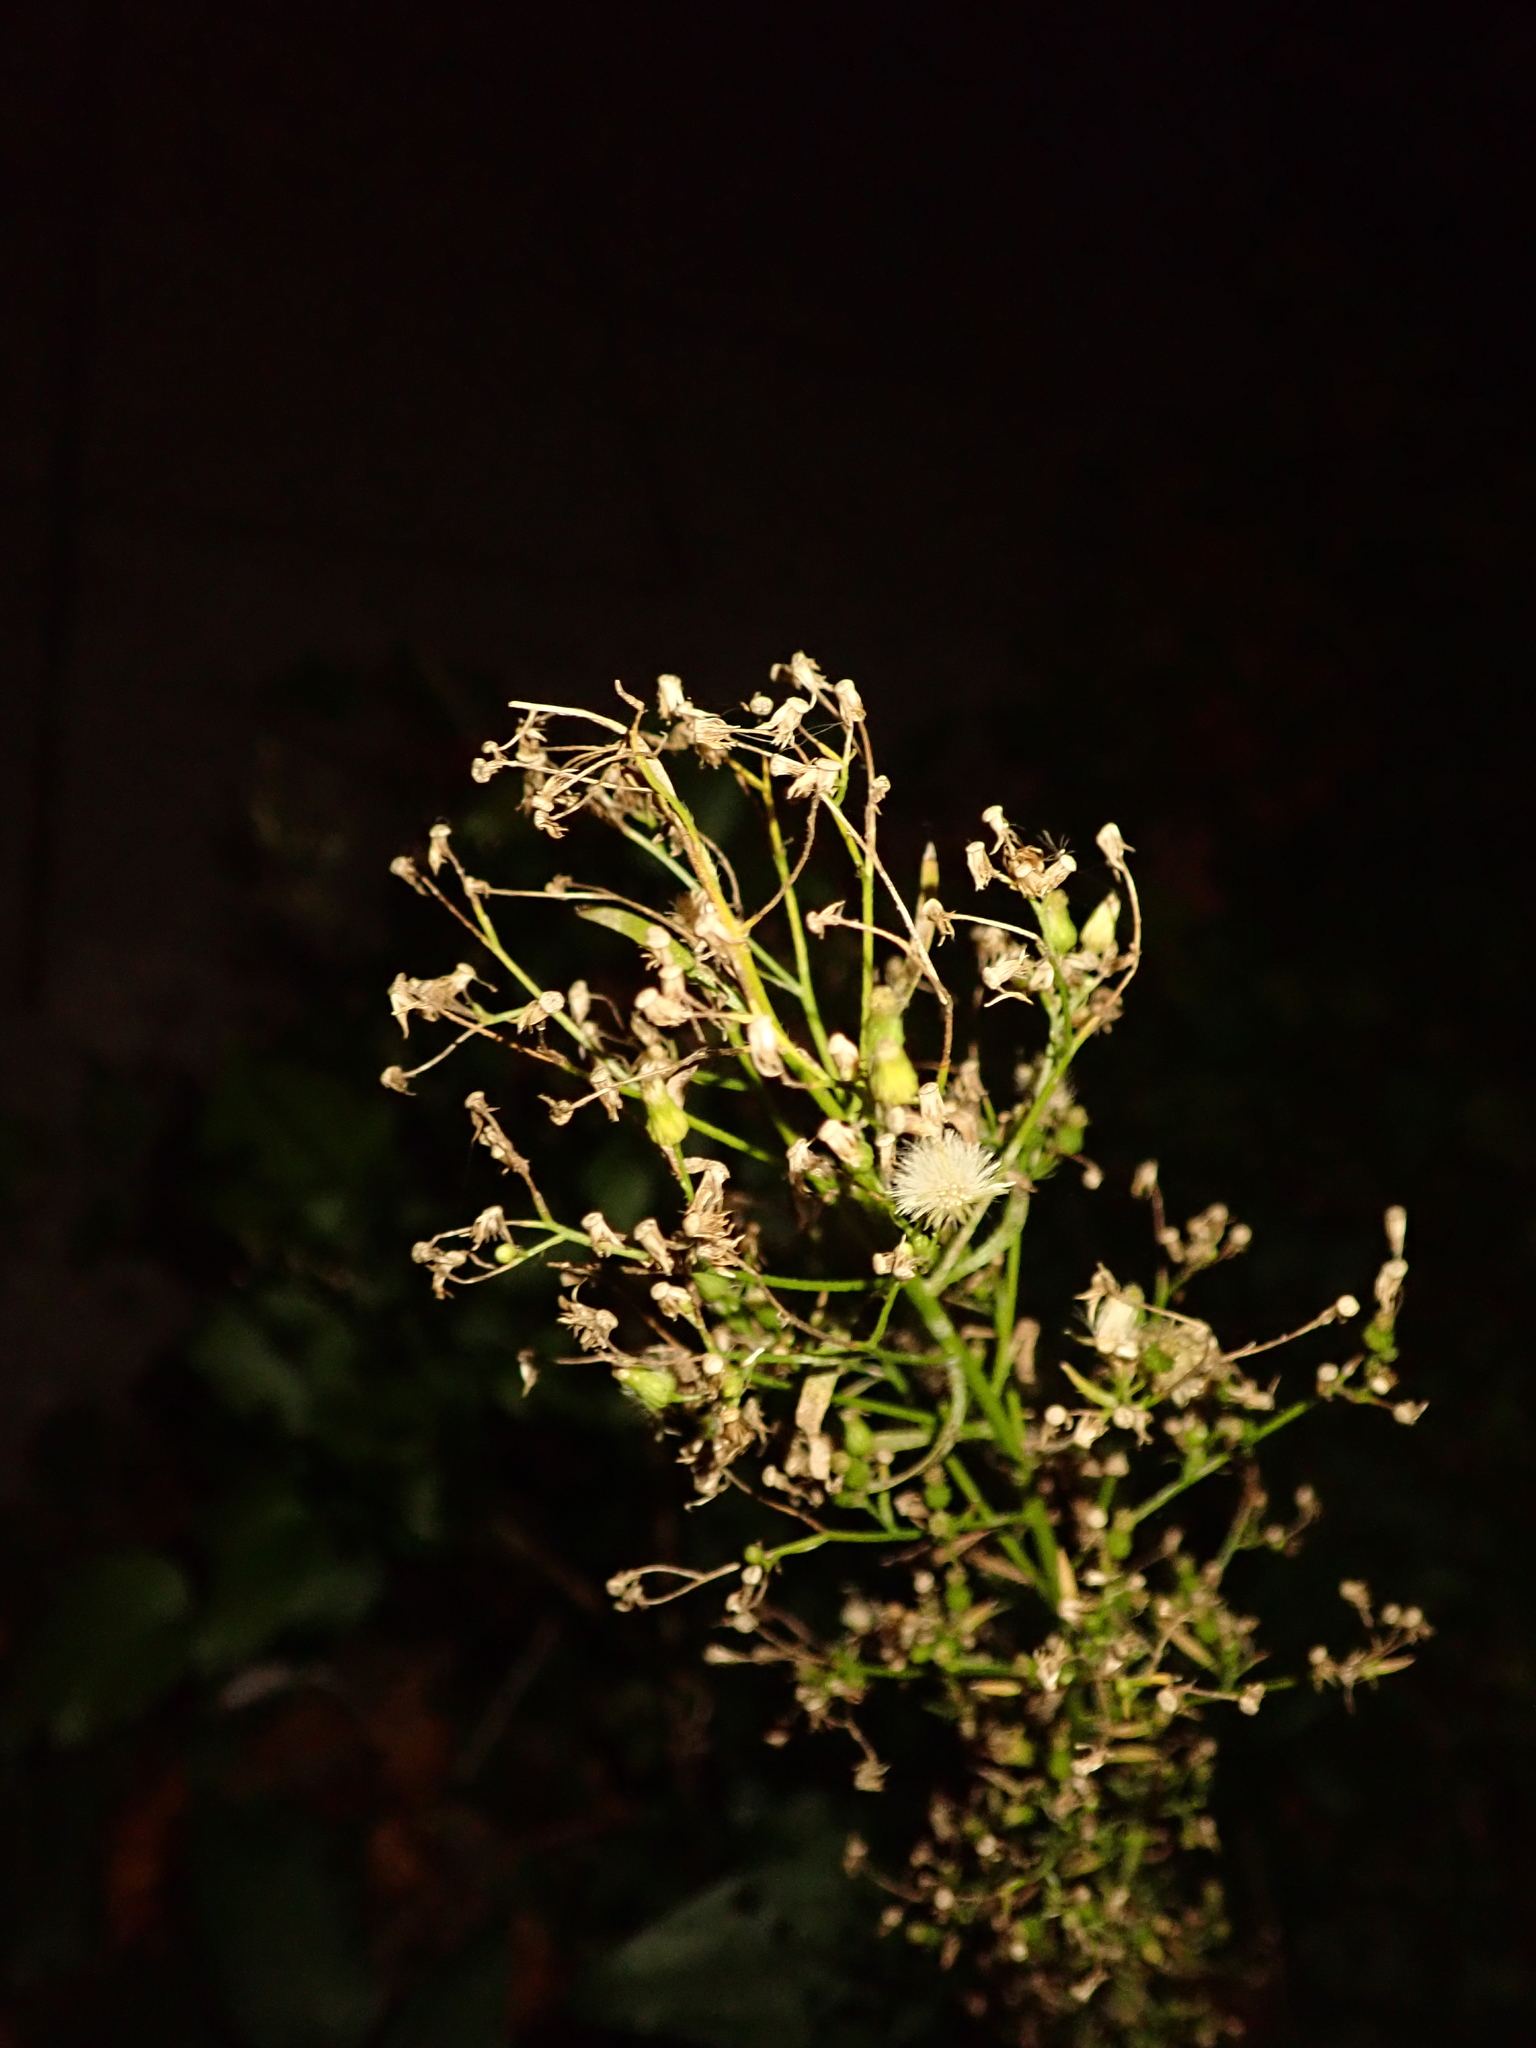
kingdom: Plantae
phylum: Tracheophyta
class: Magnoliopsida
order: Asterales
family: Asteraceae
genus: Erigeron
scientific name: Erigeron canadensis
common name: Canadian fleabane
